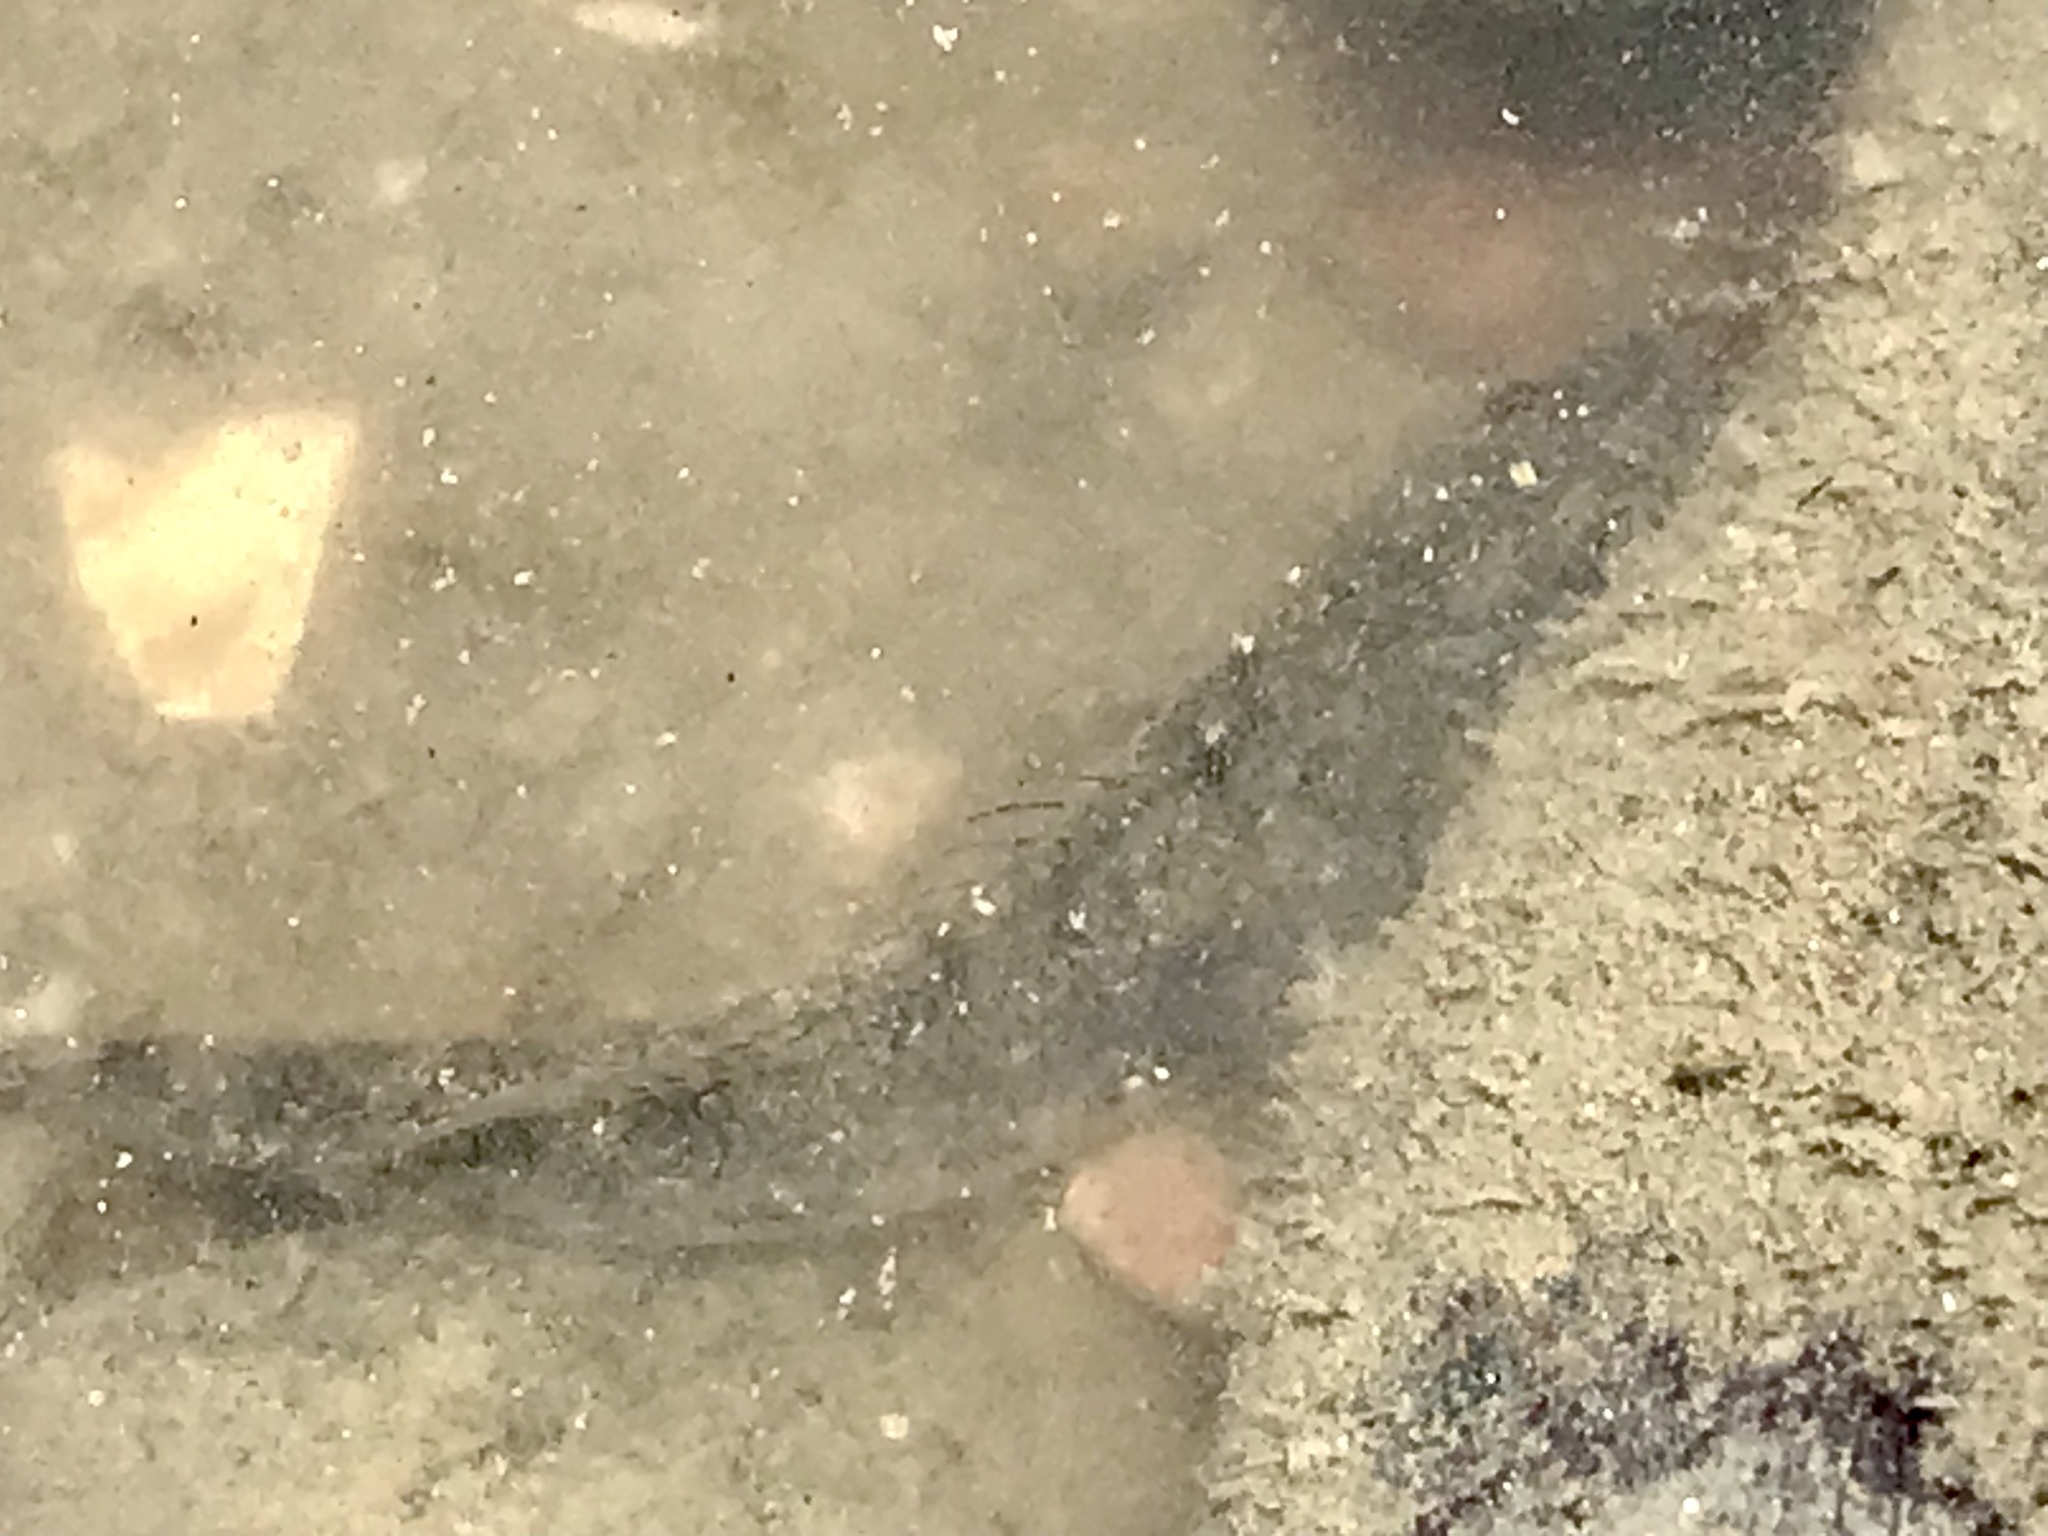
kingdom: Animalia
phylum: Chordata
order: Perciformes
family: Gobiidae
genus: Acanthogobius
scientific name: Acanthogobius flavimanus
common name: Yellowfin goby
